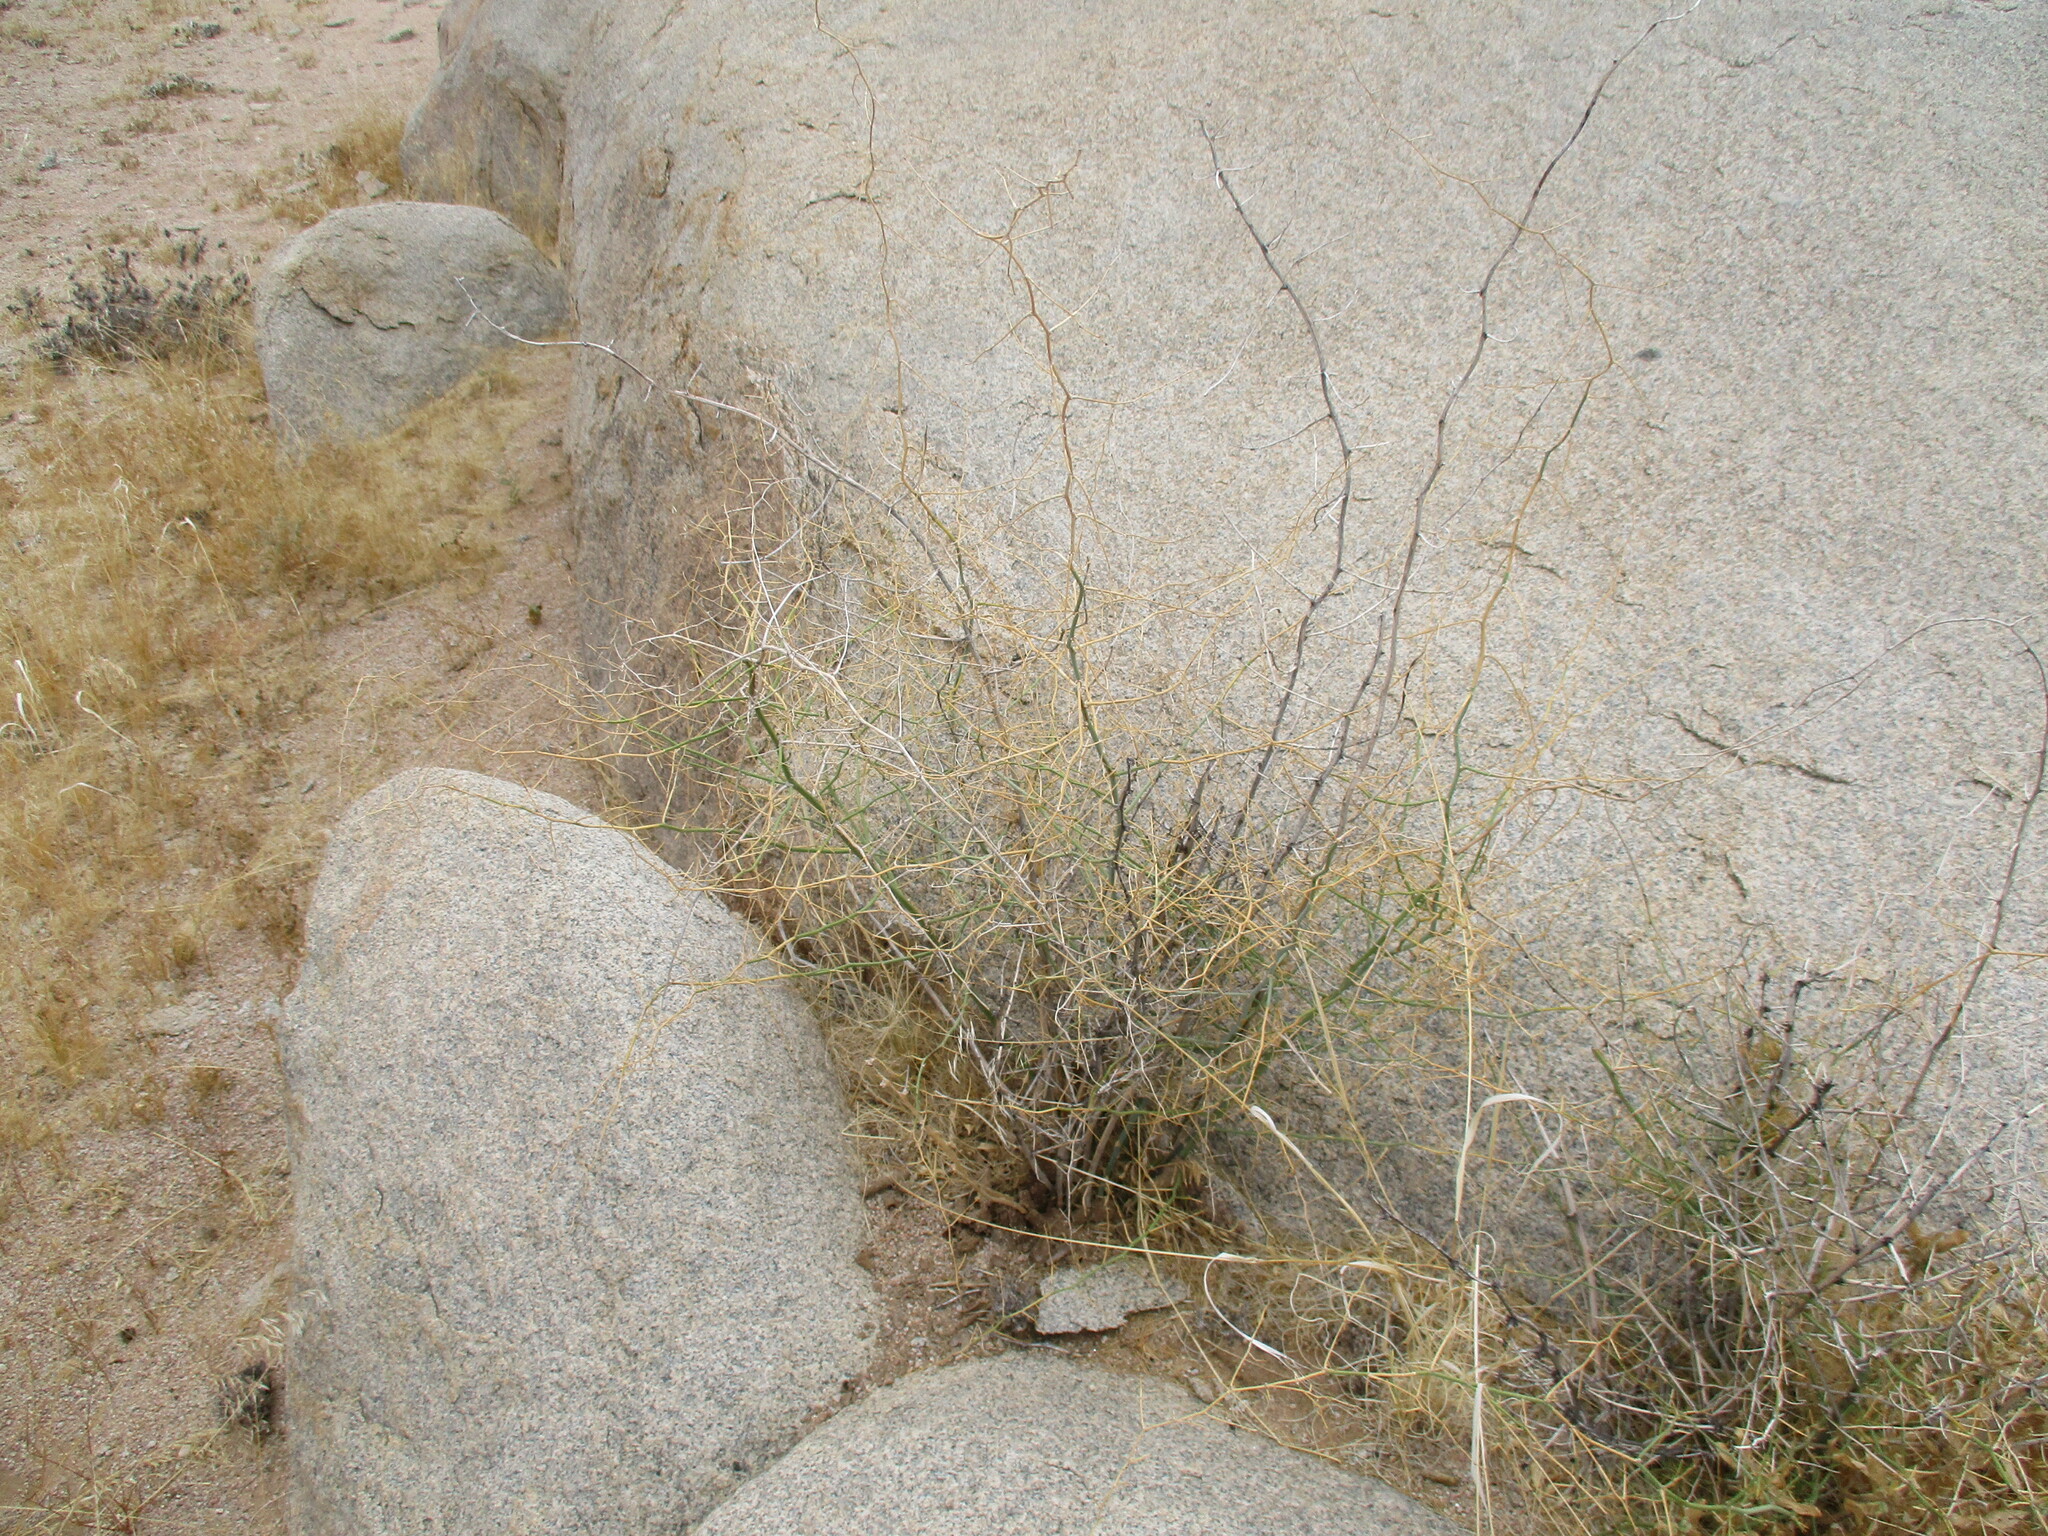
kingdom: Plantae
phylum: Tracheophyta
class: Liliopsida
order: Asparagales
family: Asparagaceae
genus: Asparagus
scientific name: Asparagus pearsonii
